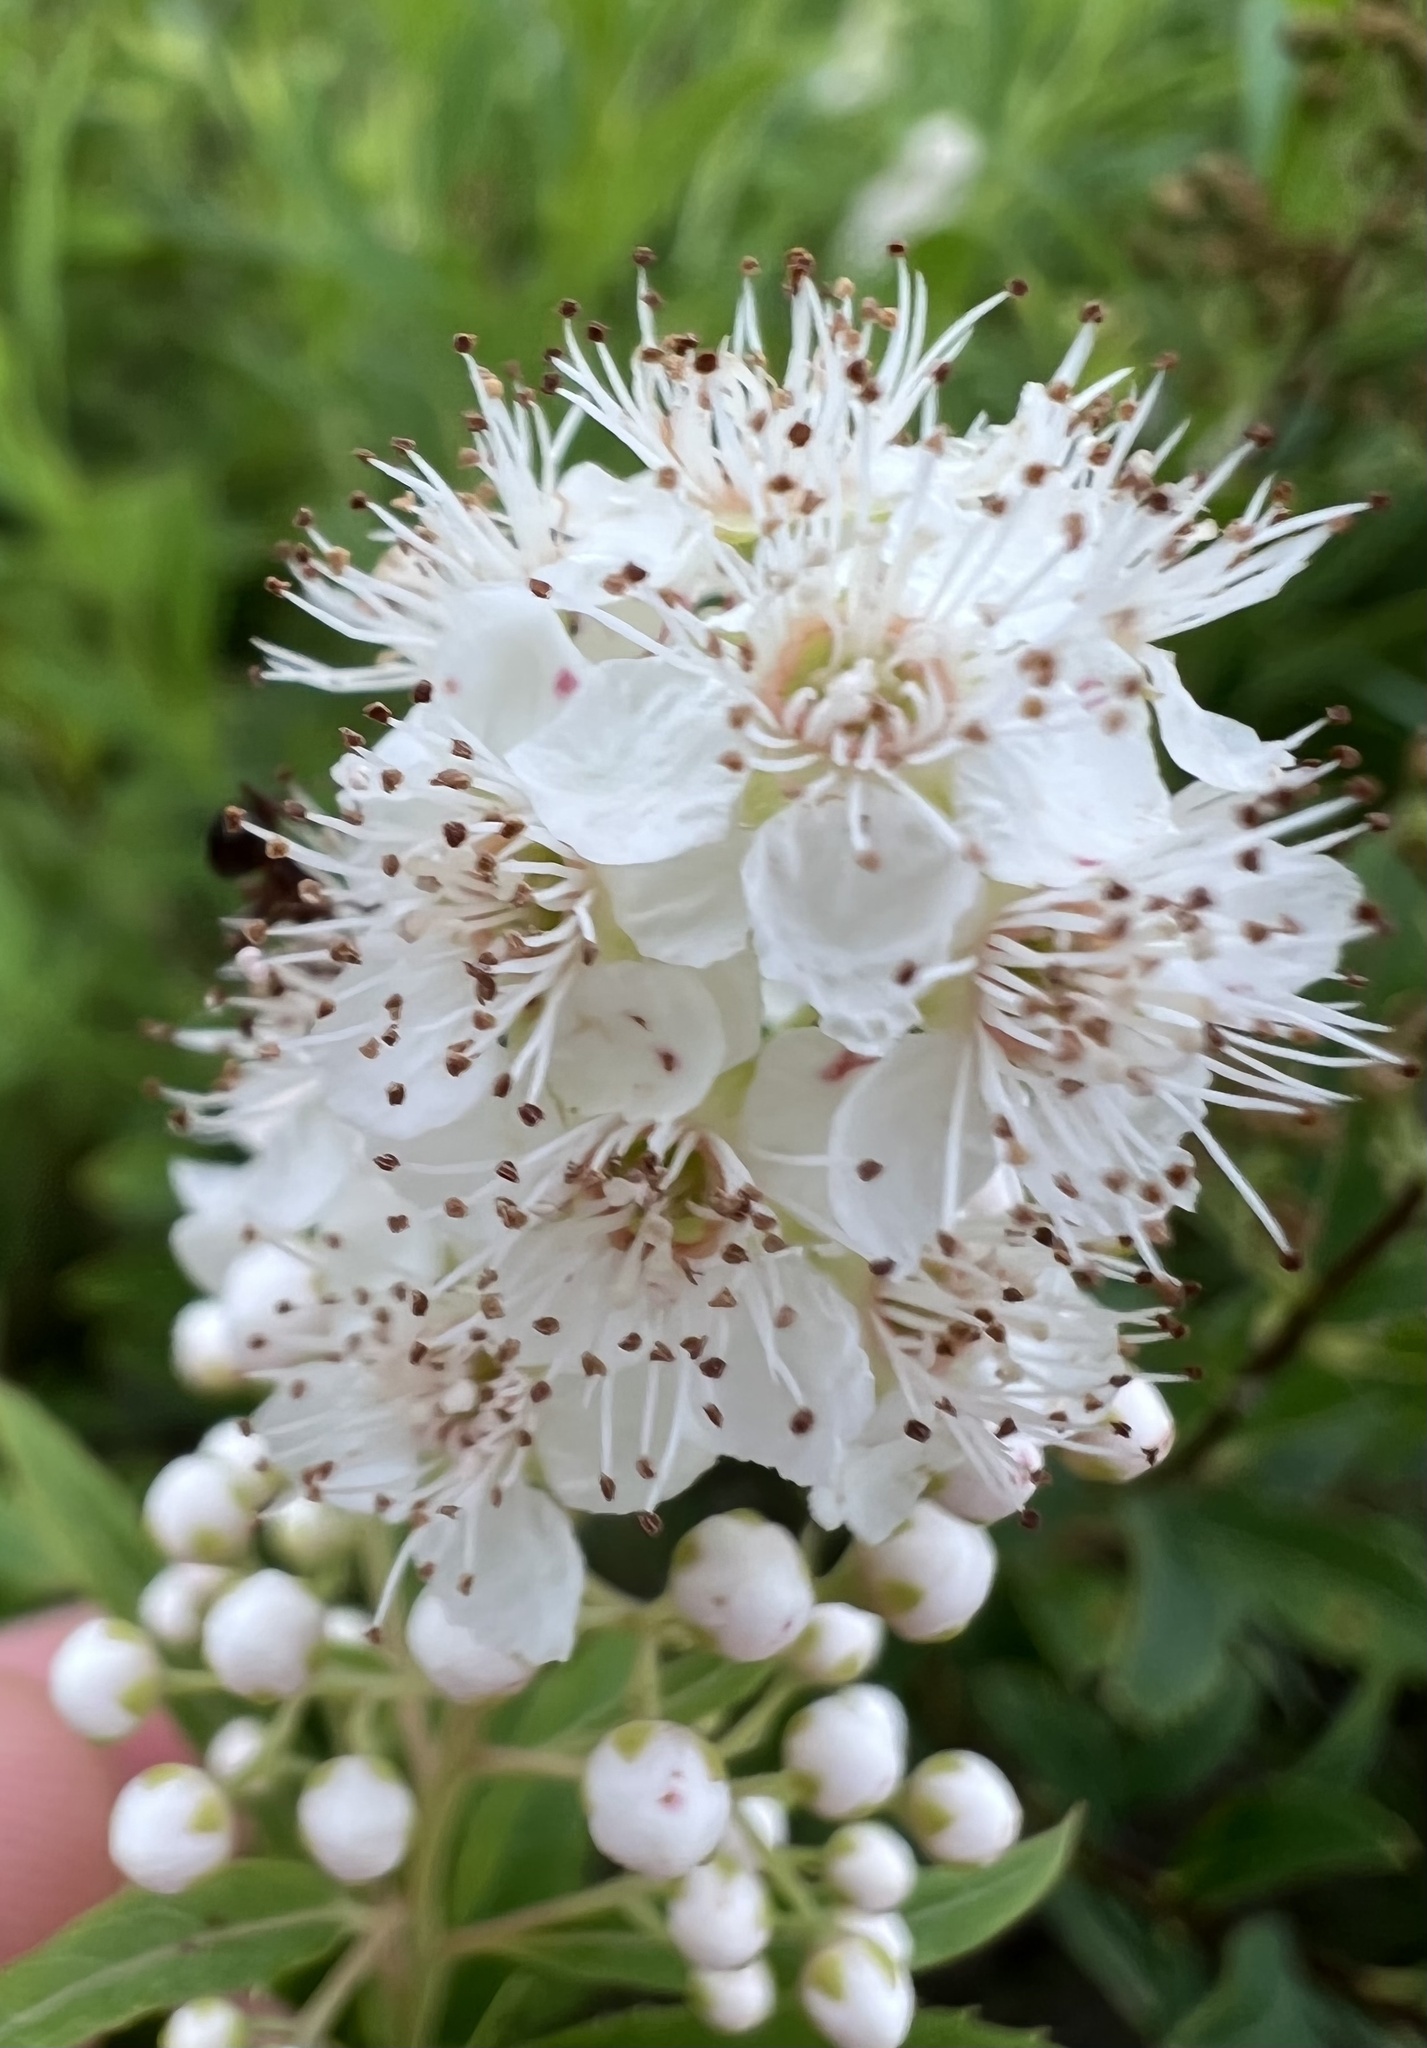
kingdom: Plantae
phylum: Tracheophyta
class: Magnoliopsida
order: Rosales
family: Rosaceae
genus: Spiraea
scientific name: Spiraea alba
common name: Pale bridewort
